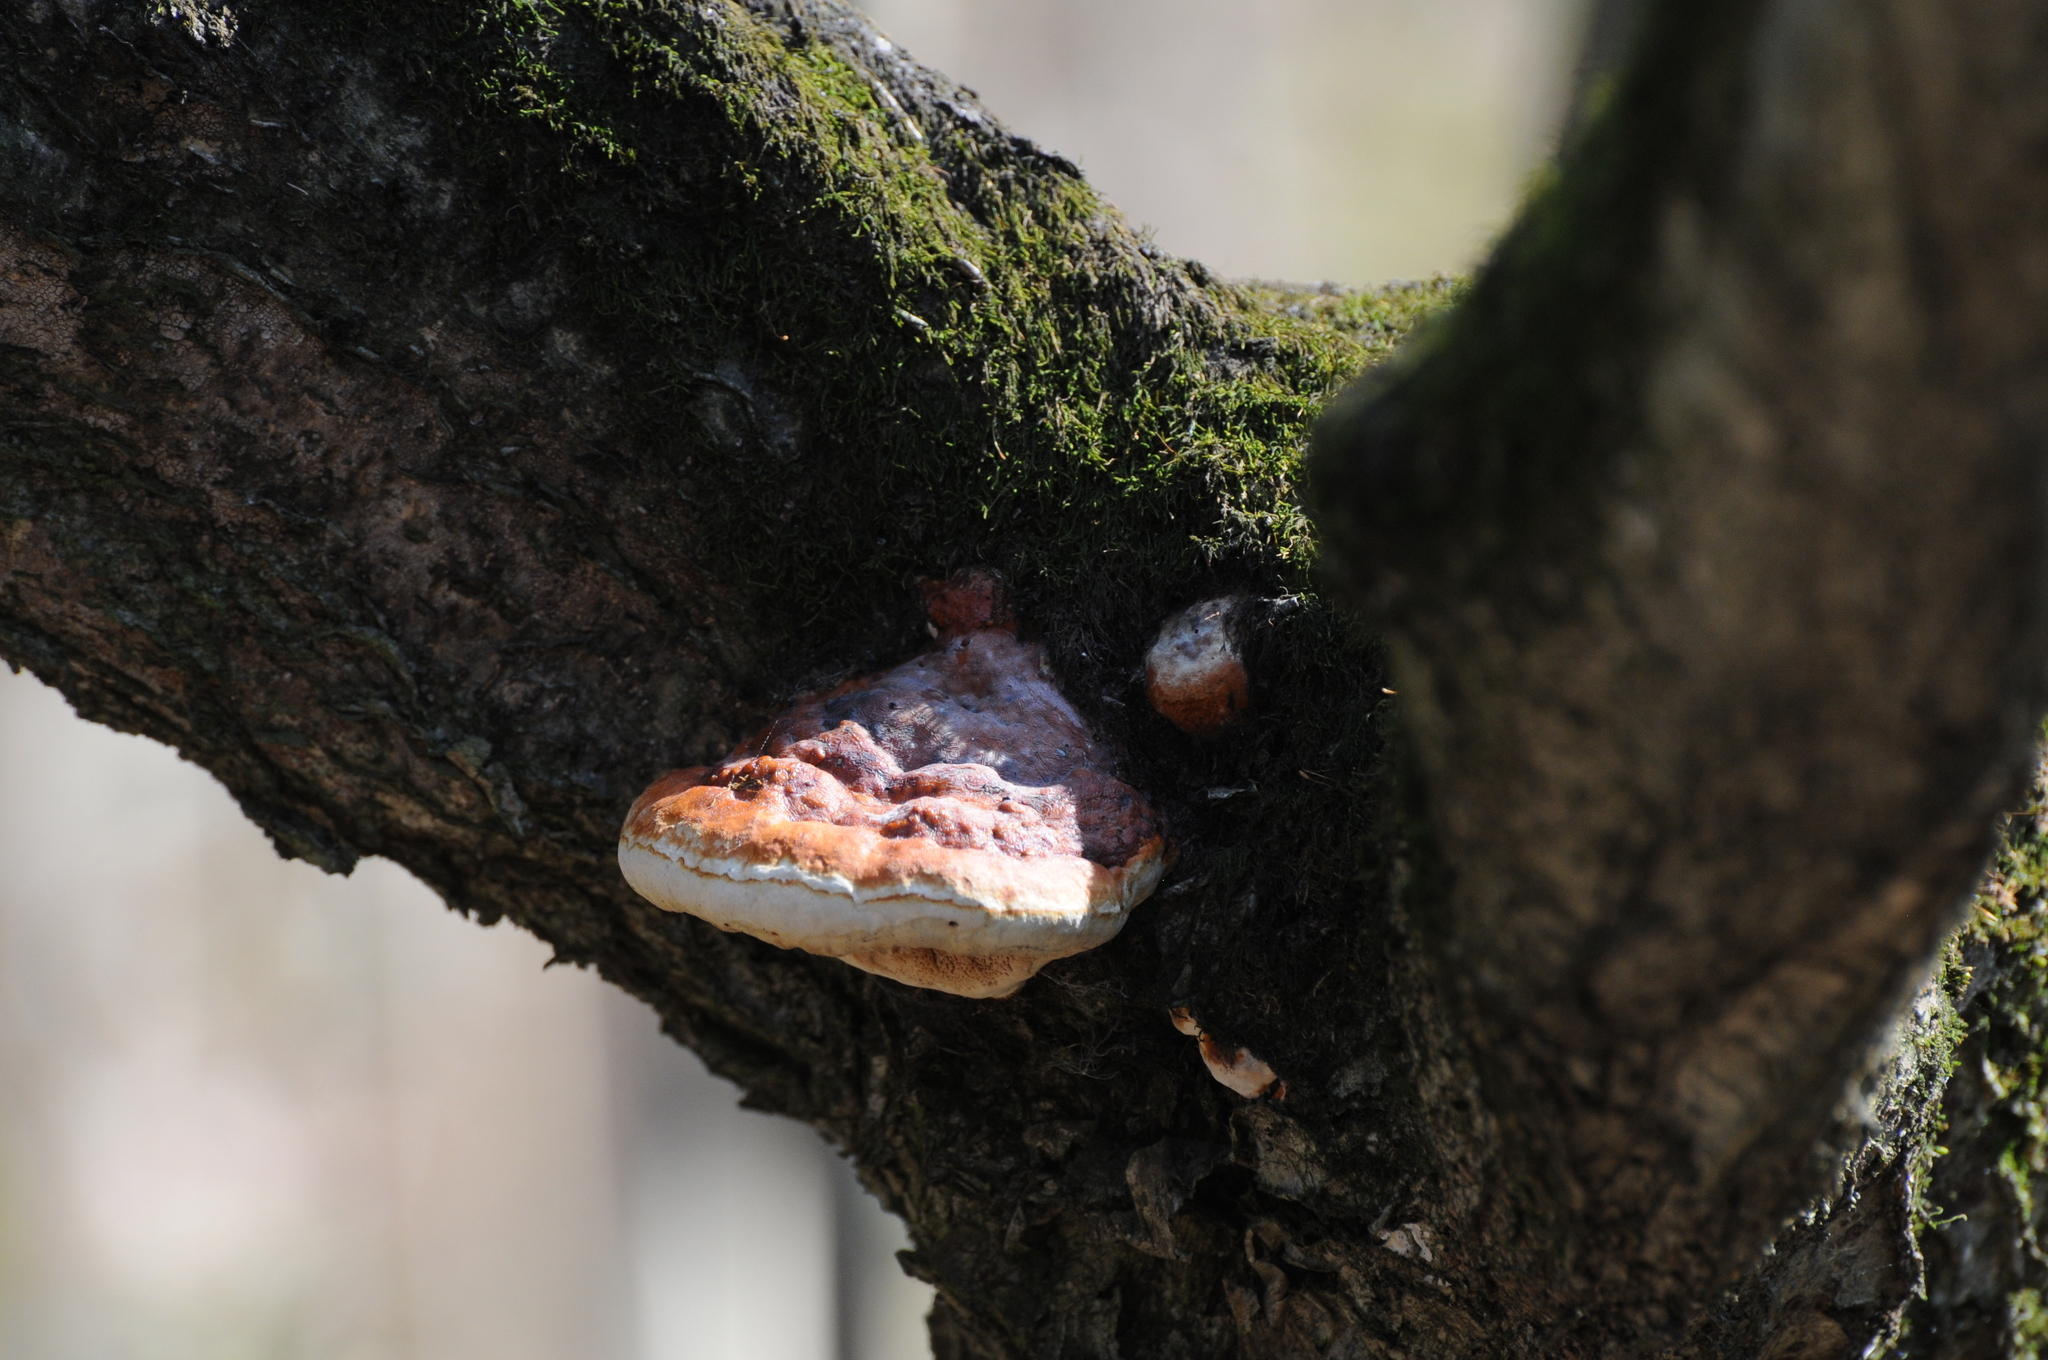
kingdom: Fungi
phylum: Basidiomycota
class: Agaricomycetes
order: Polyporales
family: Fomitopsidaceae
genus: Fomitopsis
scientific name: Fomitopsis pinicola
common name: Red-belted bracket
